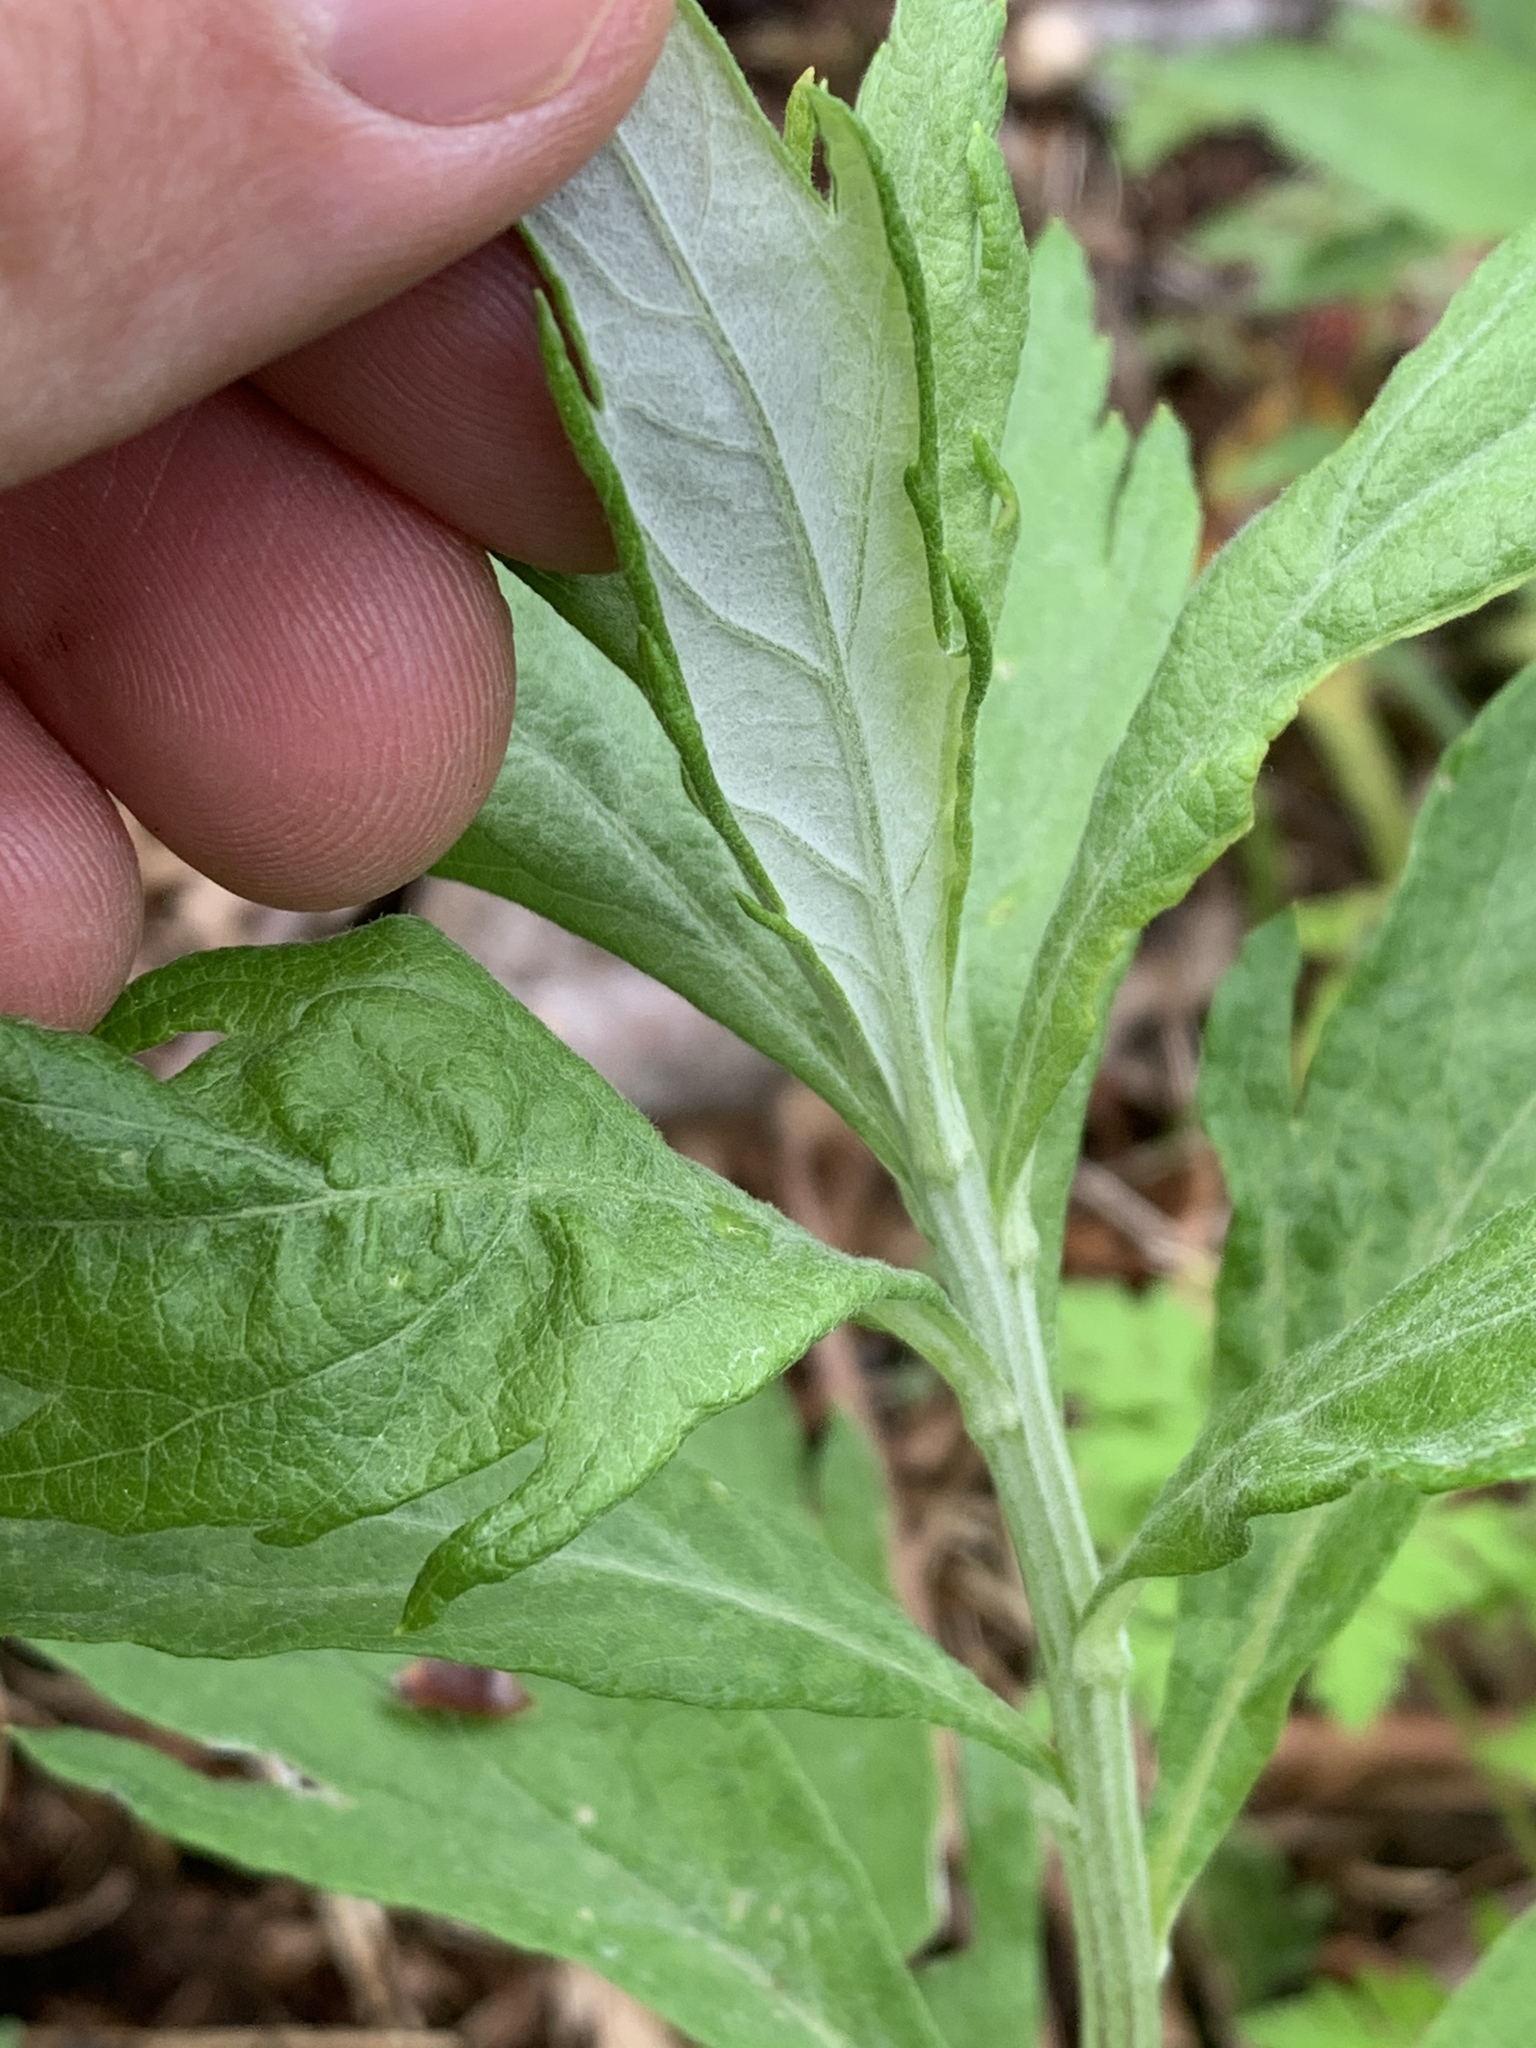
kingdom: Plantae
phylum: Tracheophyta
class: Magnoliopsida
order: Asterales
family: Asteraceae
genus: Artemisia
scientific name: Artemisia suksdorfii
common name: Suksdorf sagewort
